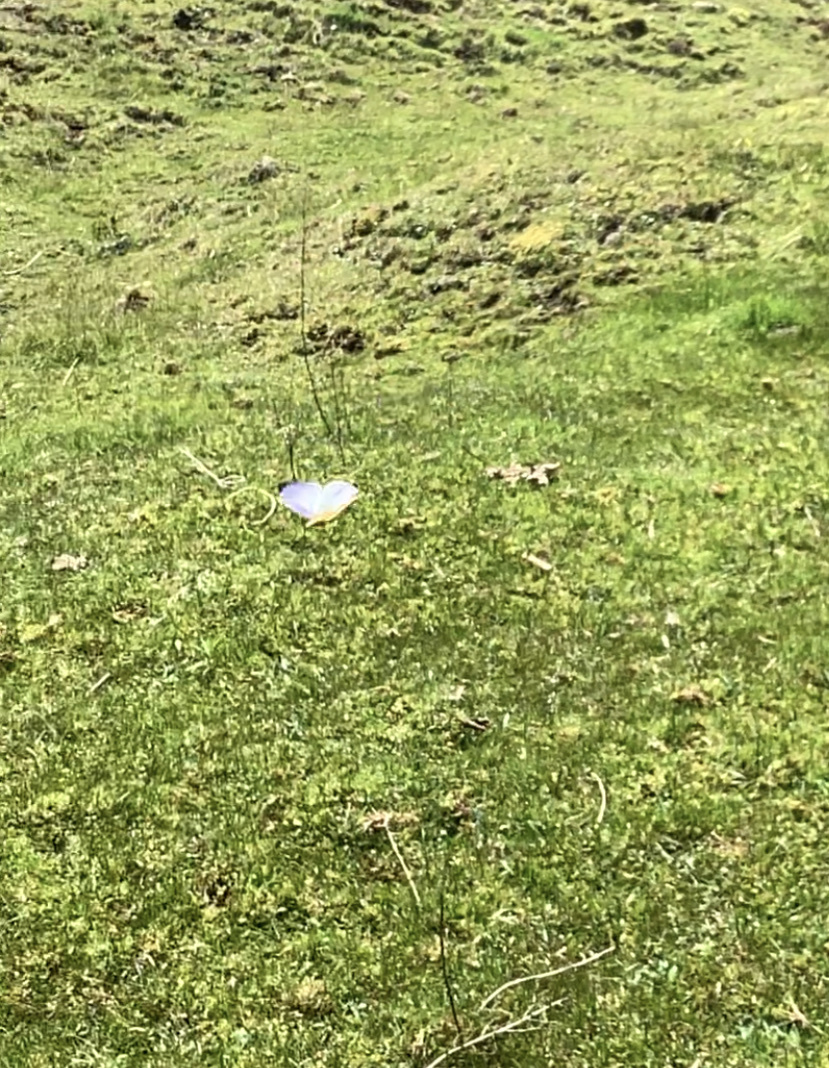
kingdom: Animalia
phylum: Arthropoda
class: Insecta
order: Lepidoptera
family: Nymphalidae
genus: Morpho
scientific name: Morpho sulkowskyi
